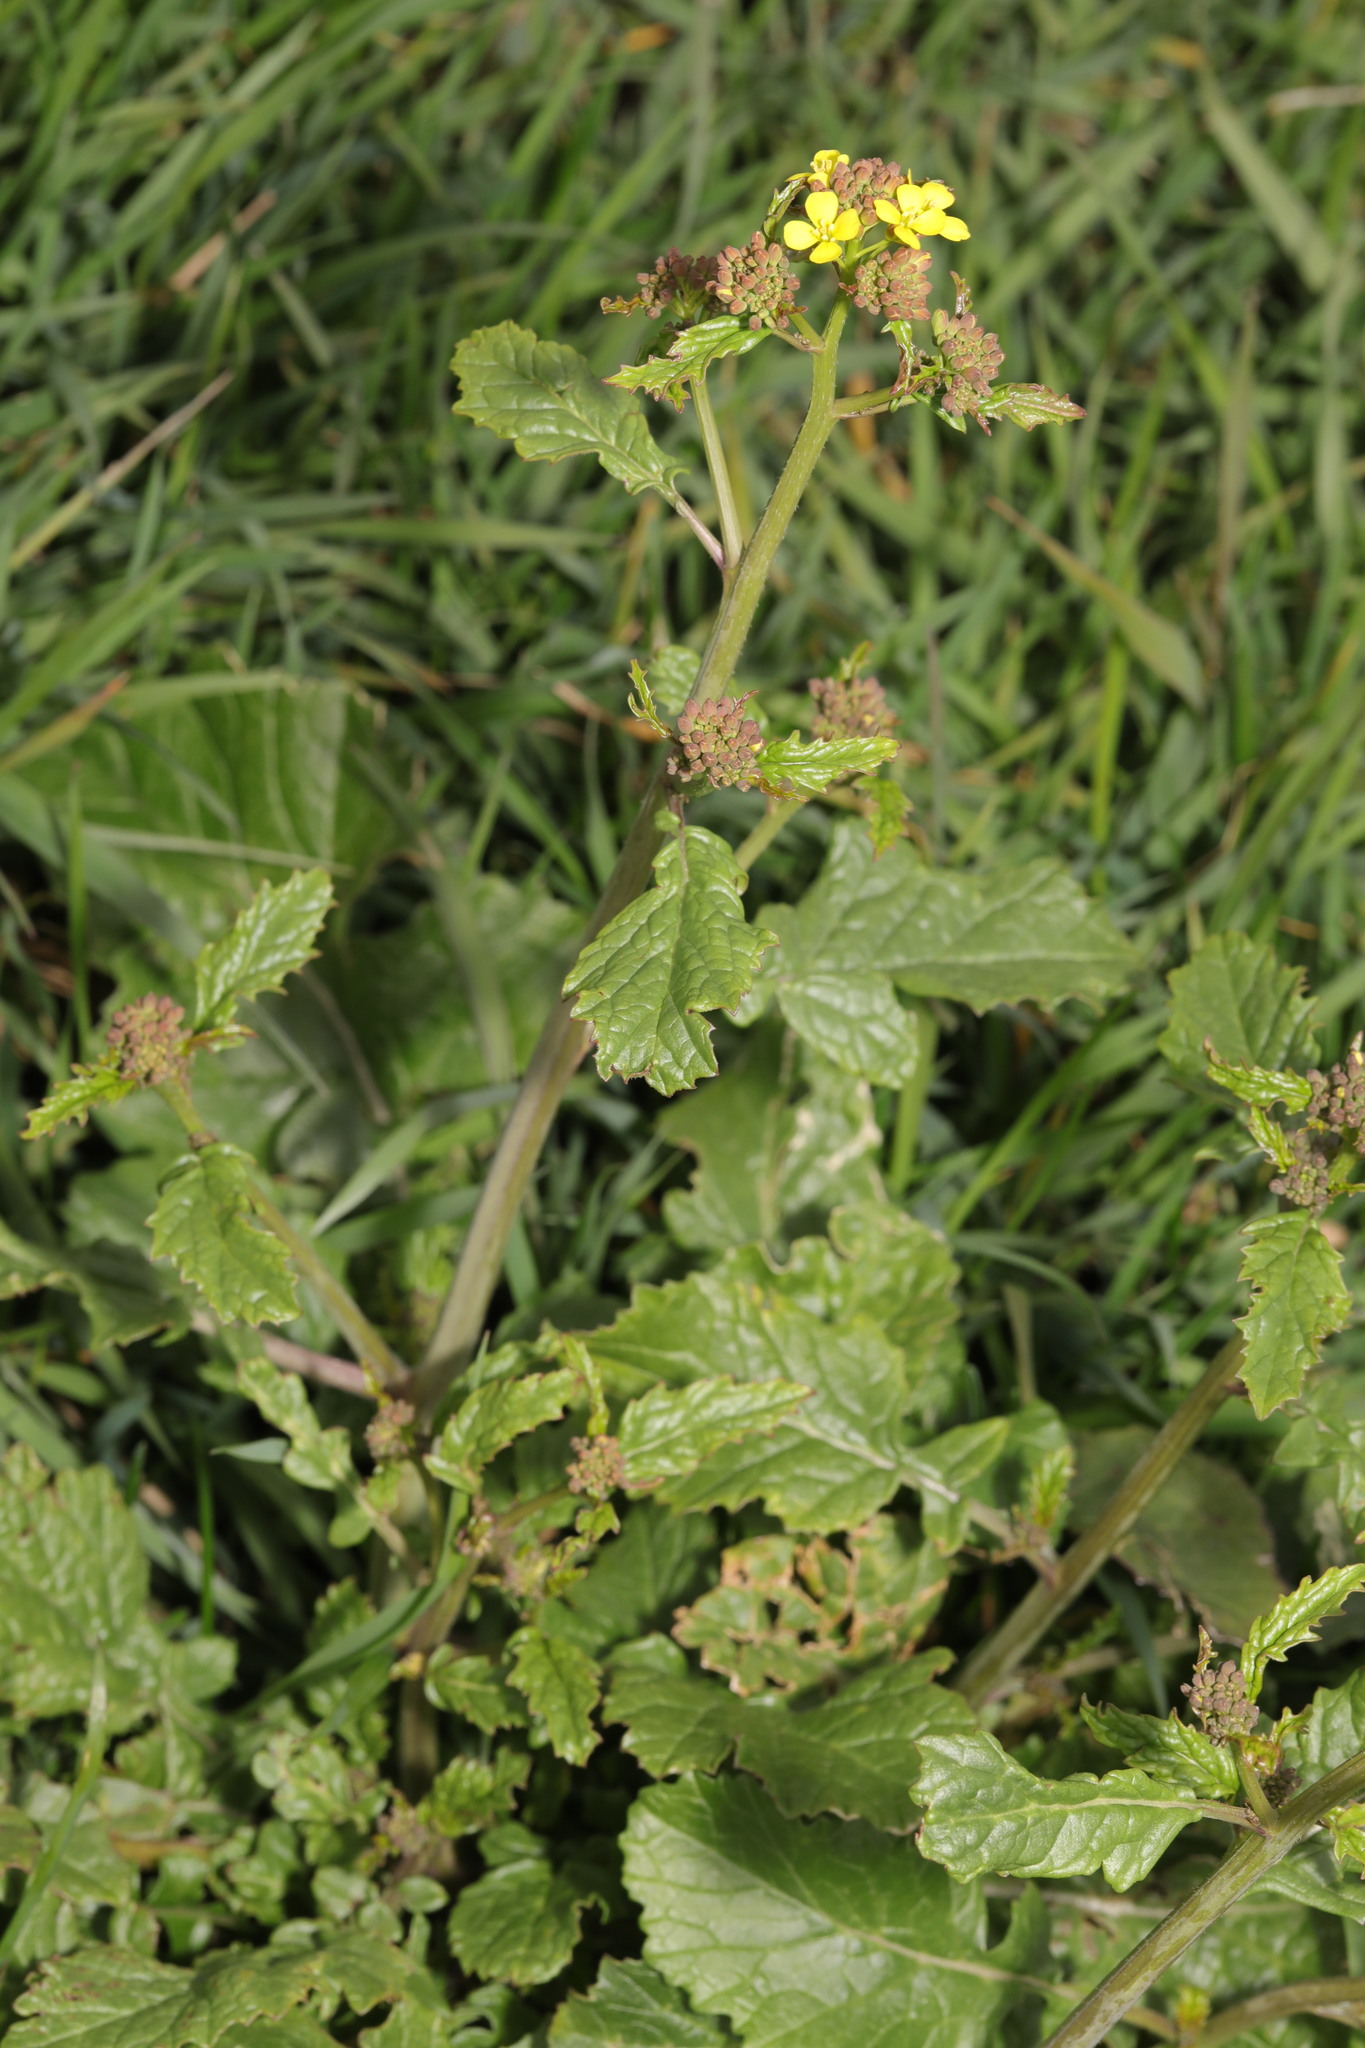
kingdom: Plantae
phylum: Tracheophyta
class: Magnoliopsida
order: Brassicales
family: Brassicaceae
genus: Sinapis
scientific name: Sinapis arvensis
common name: Charlock
